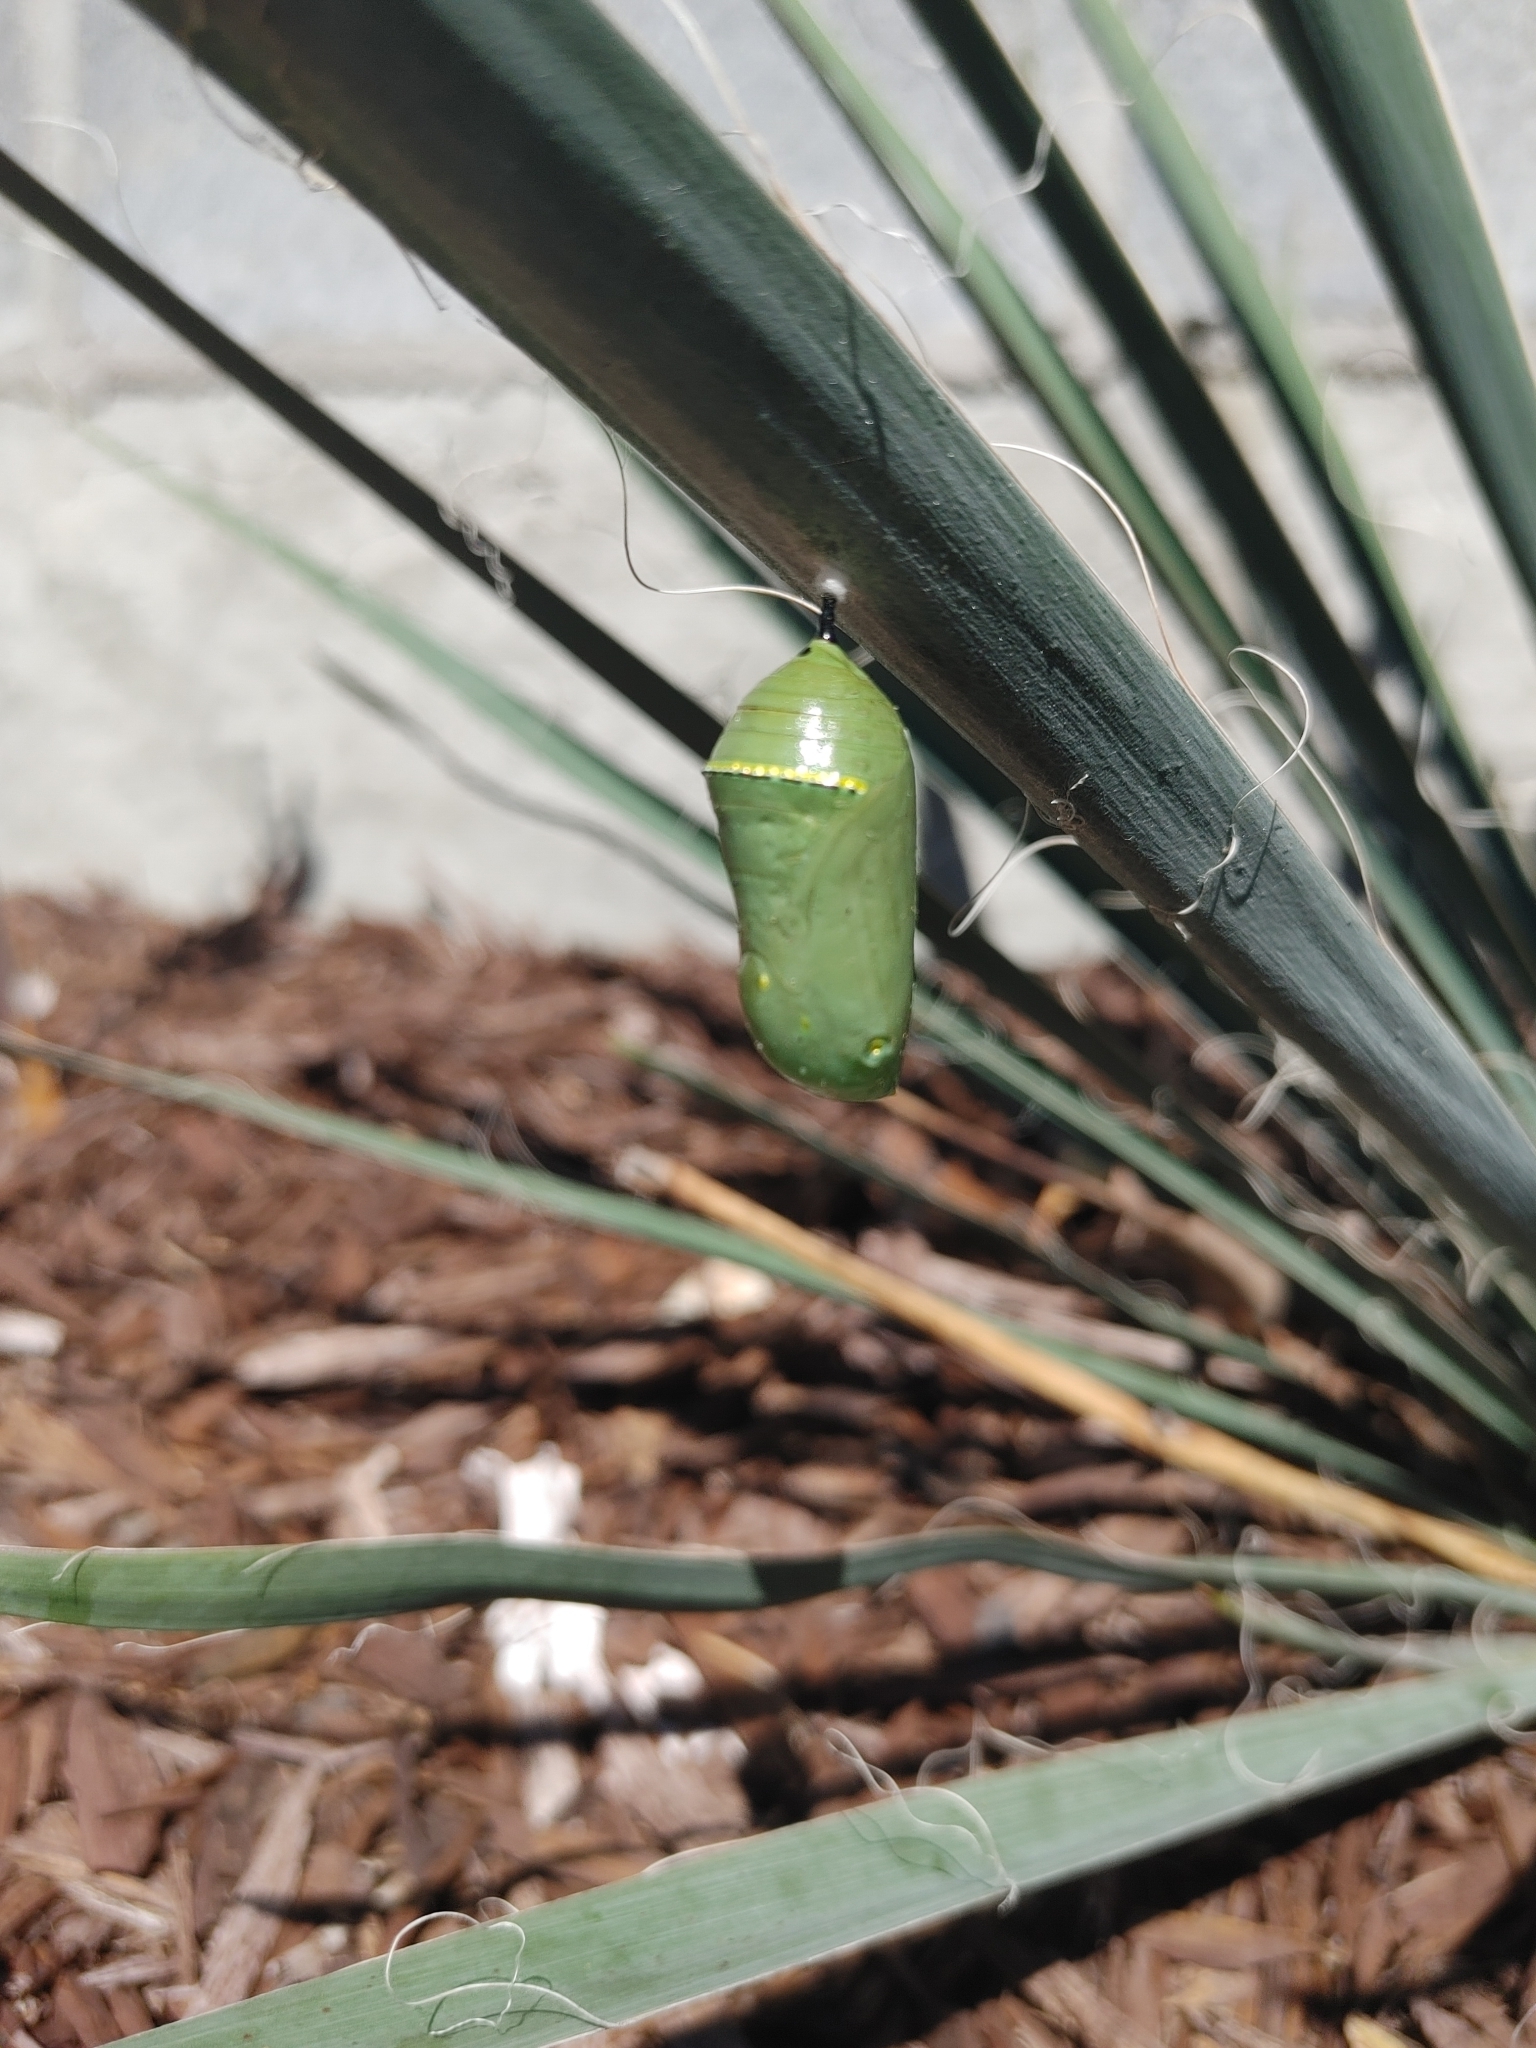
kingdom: Animalia
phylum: Arthropoda
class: Insecta
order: Lepidoptera
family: Nymphalidae
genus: Danaus
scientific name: Danaus plexippus
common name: Monarch
